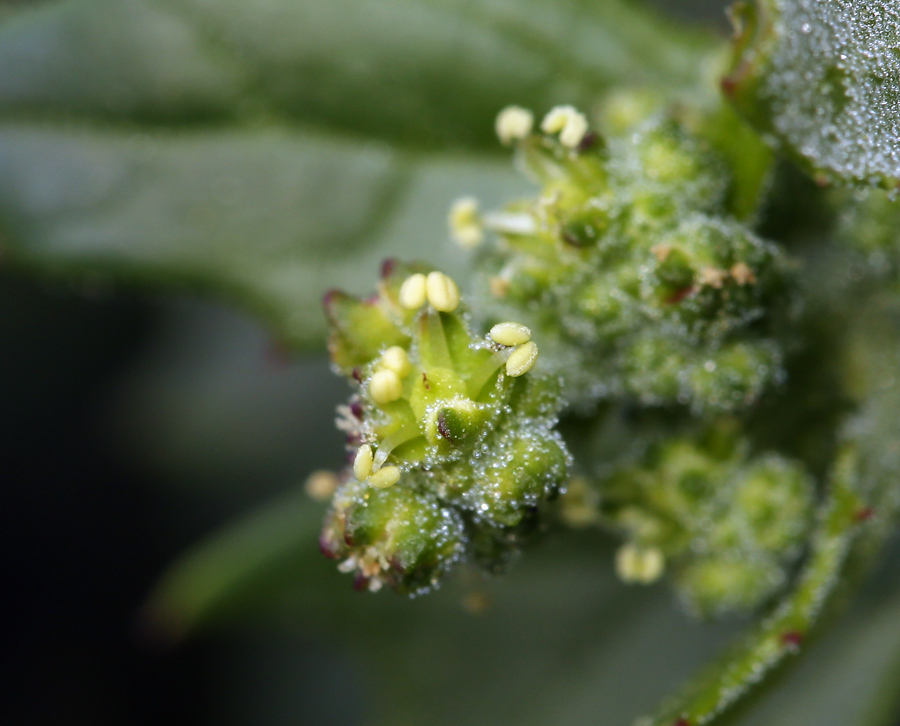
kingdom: Plantae
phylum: Tracheophyta
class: Magnoliopsida
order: Caryophyllales
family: Amaranthaceae
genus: Chenopodiastrum
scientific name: Chenopodiastrum murale
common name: Sowbane
